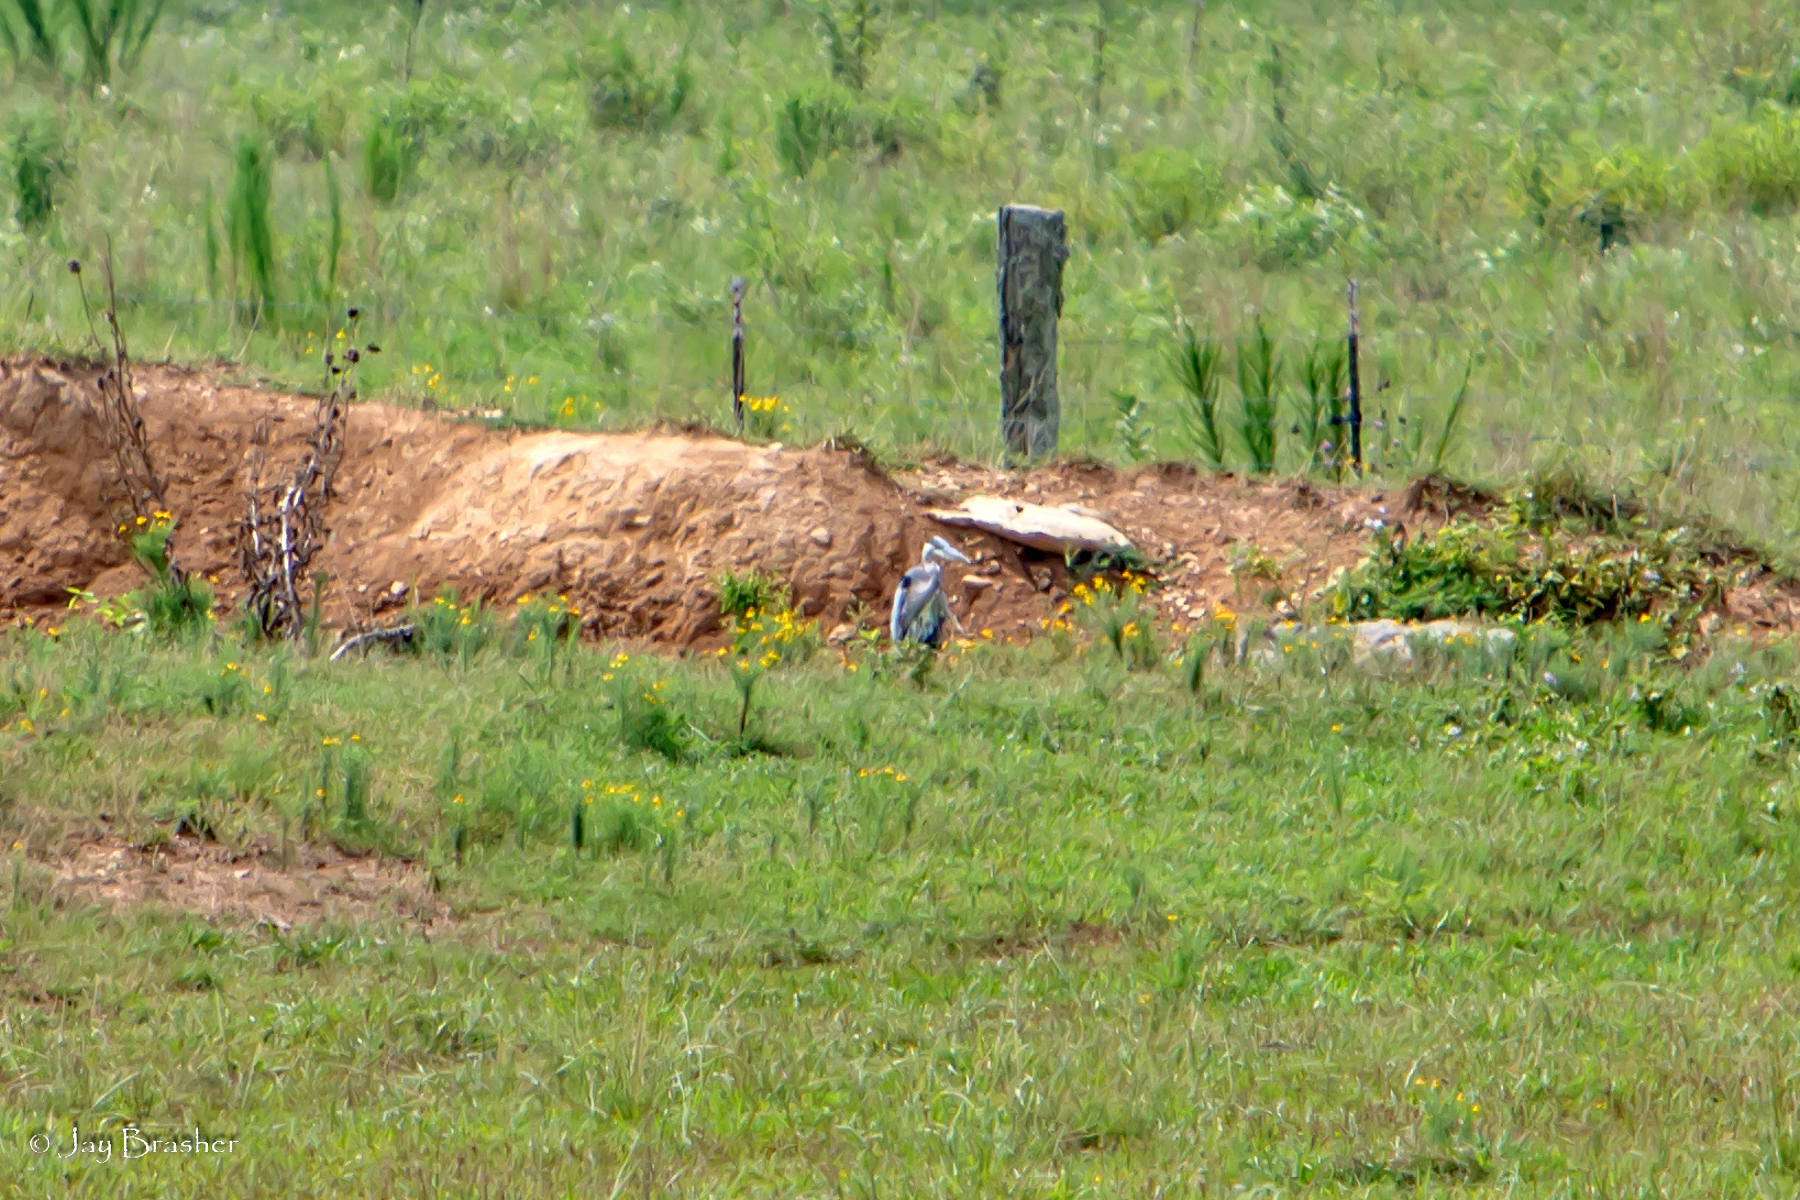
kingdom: Animalia
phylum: Chordata
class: Aves
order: Pelecaniformes
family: Ardeidae
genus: Ardea
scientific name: Ardea herodias
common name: Great blue heron
